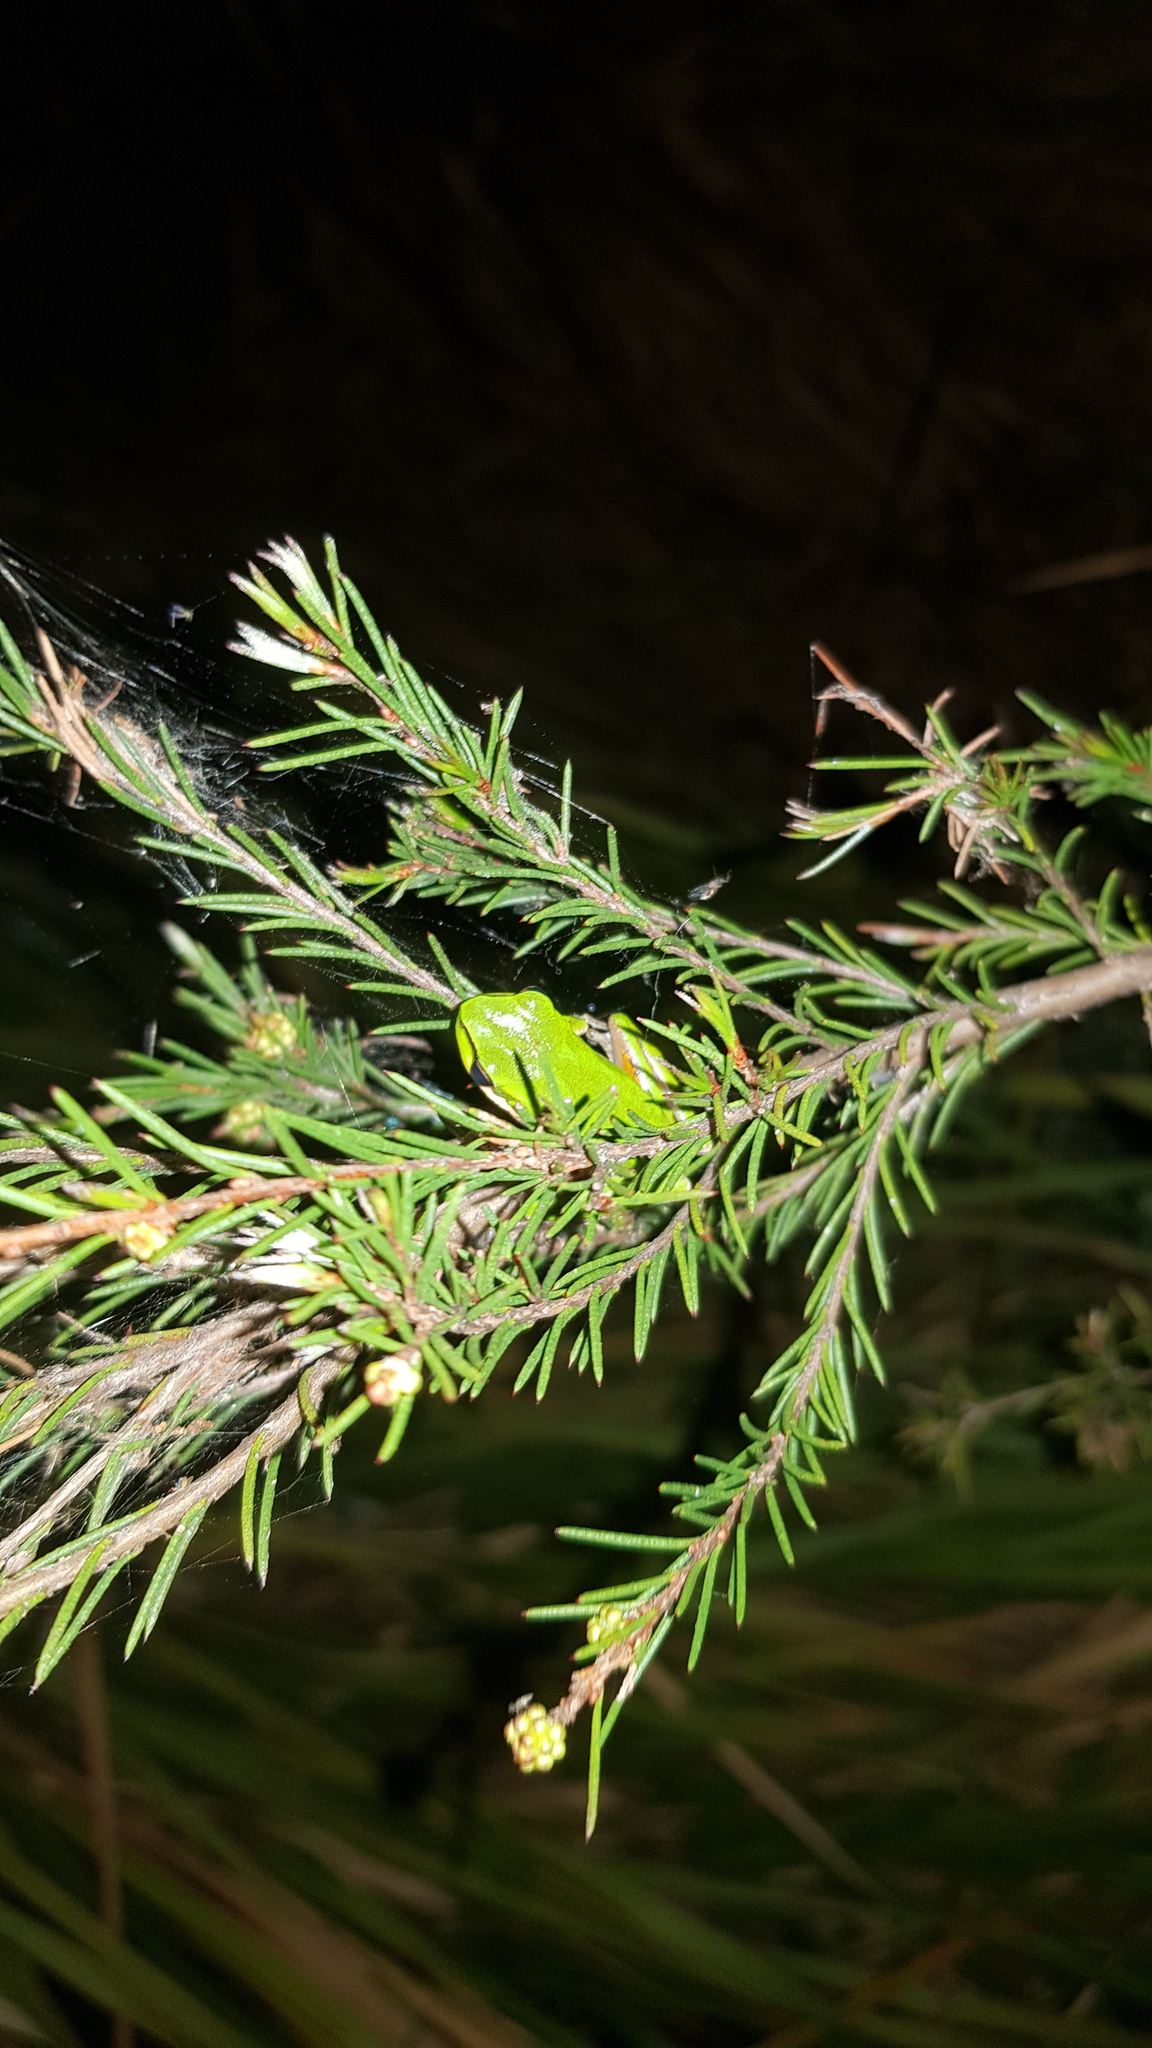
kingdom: Animalia
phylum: Chordata
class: Amphibia
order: Anura
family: Pelodryadidae
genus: Litoria
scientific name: Litoria fallax
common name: Eastern dwarf treefrog
